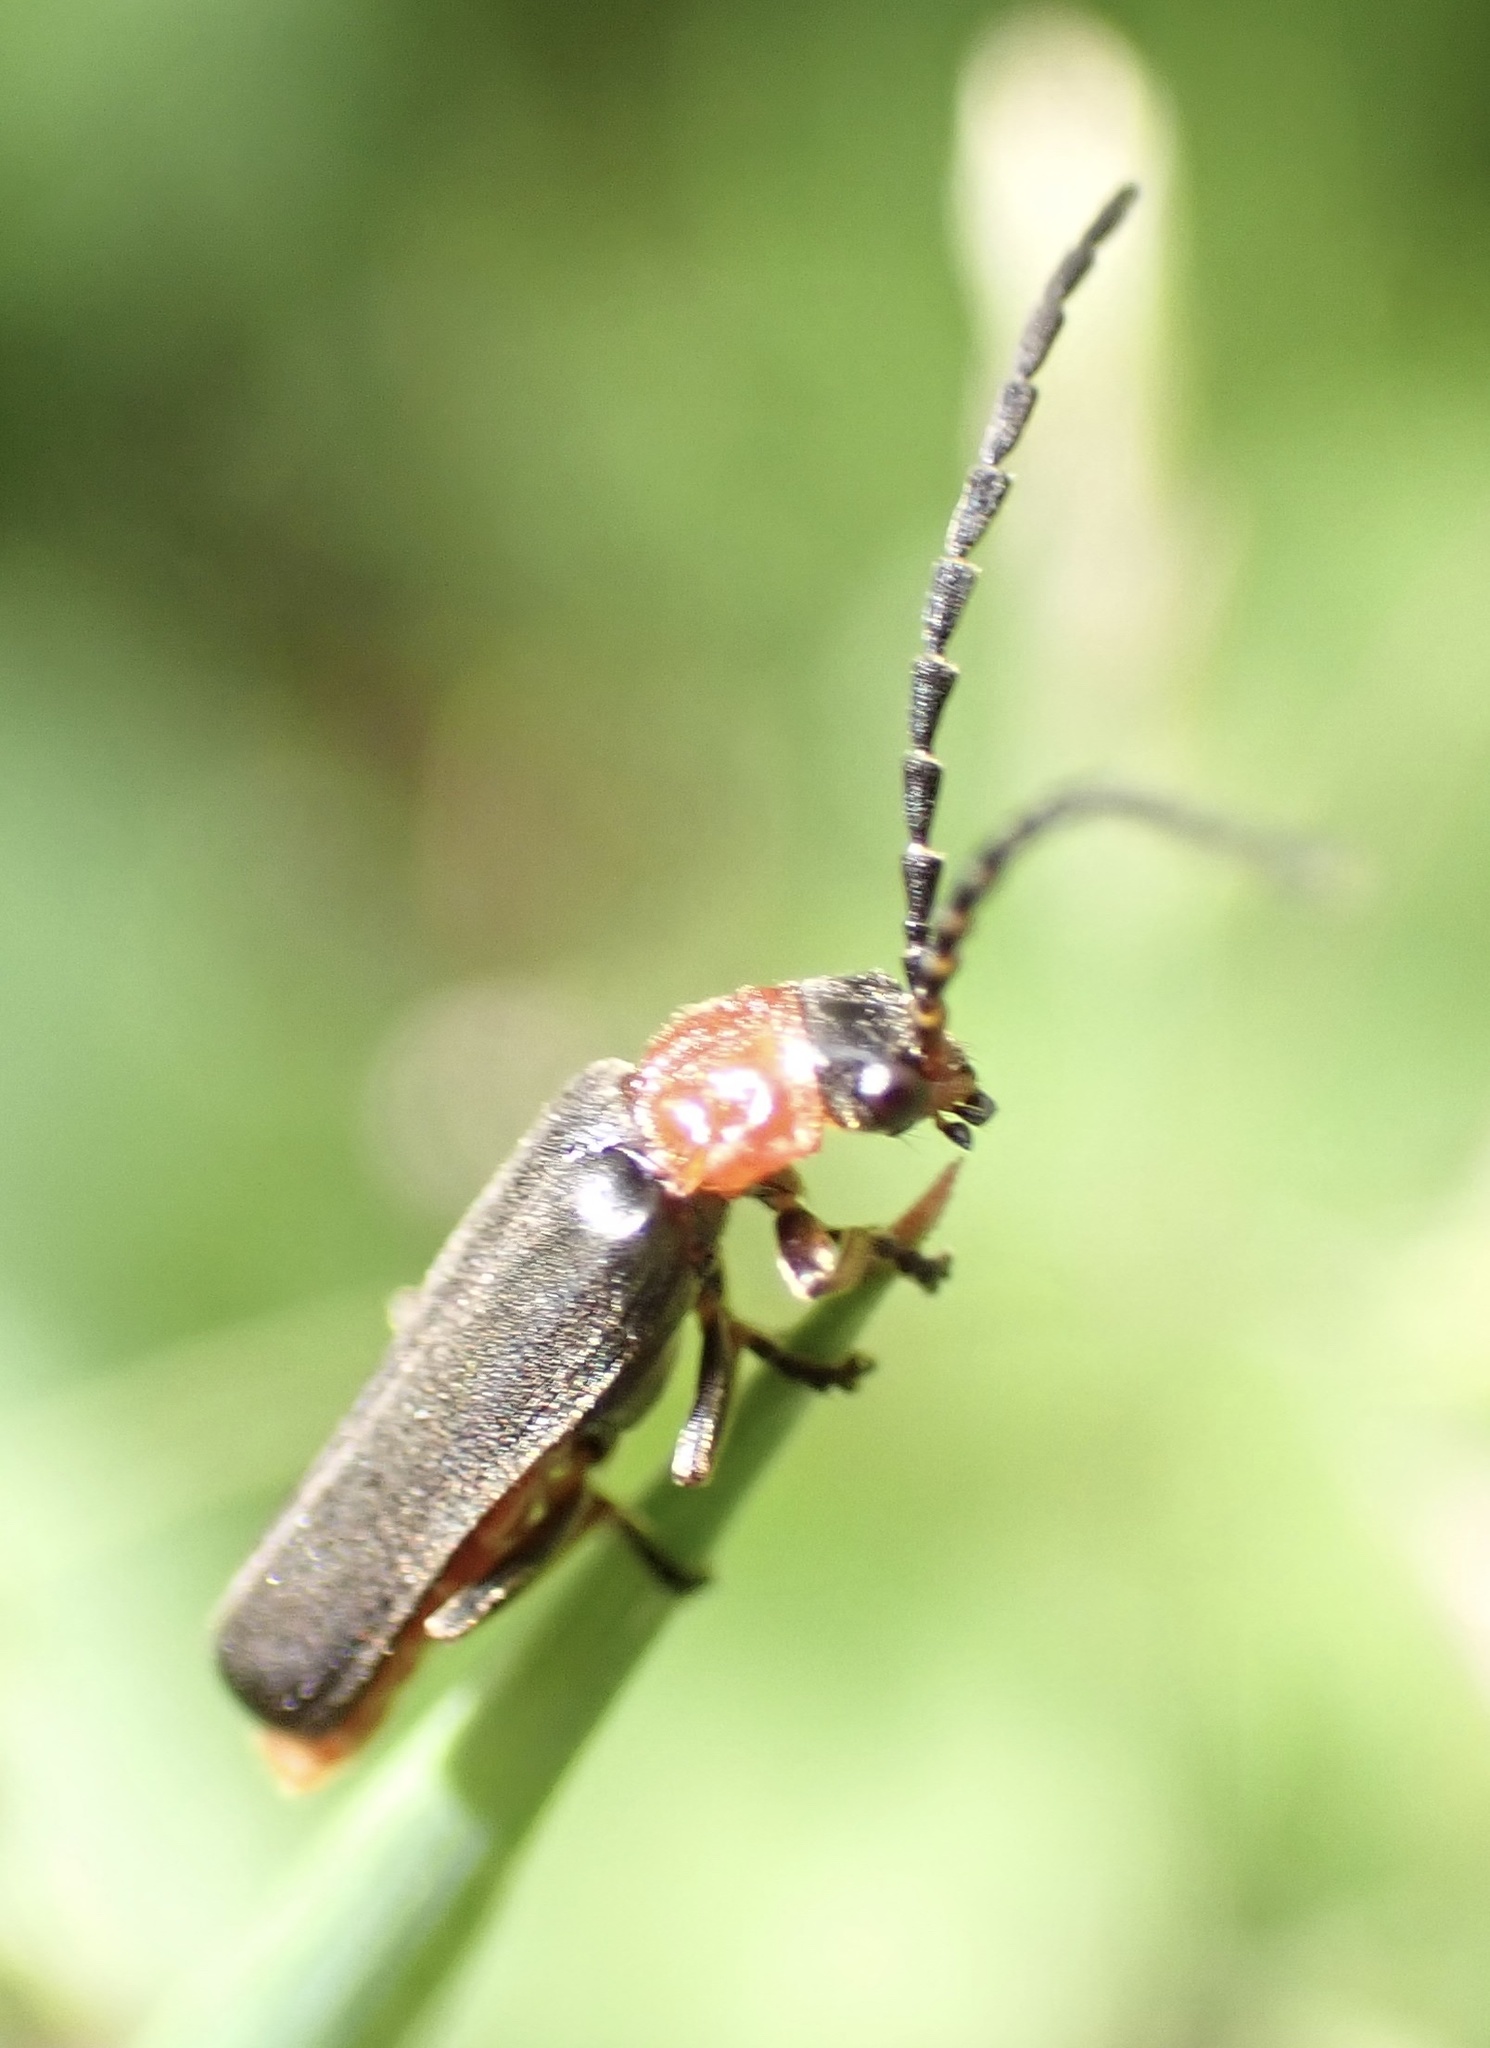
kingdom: Animalia
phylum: Arthropoda
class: Insecta
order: Coleoptera
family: Cantharidae
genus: Crudosilis
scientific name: Crudosilis ruficollis
